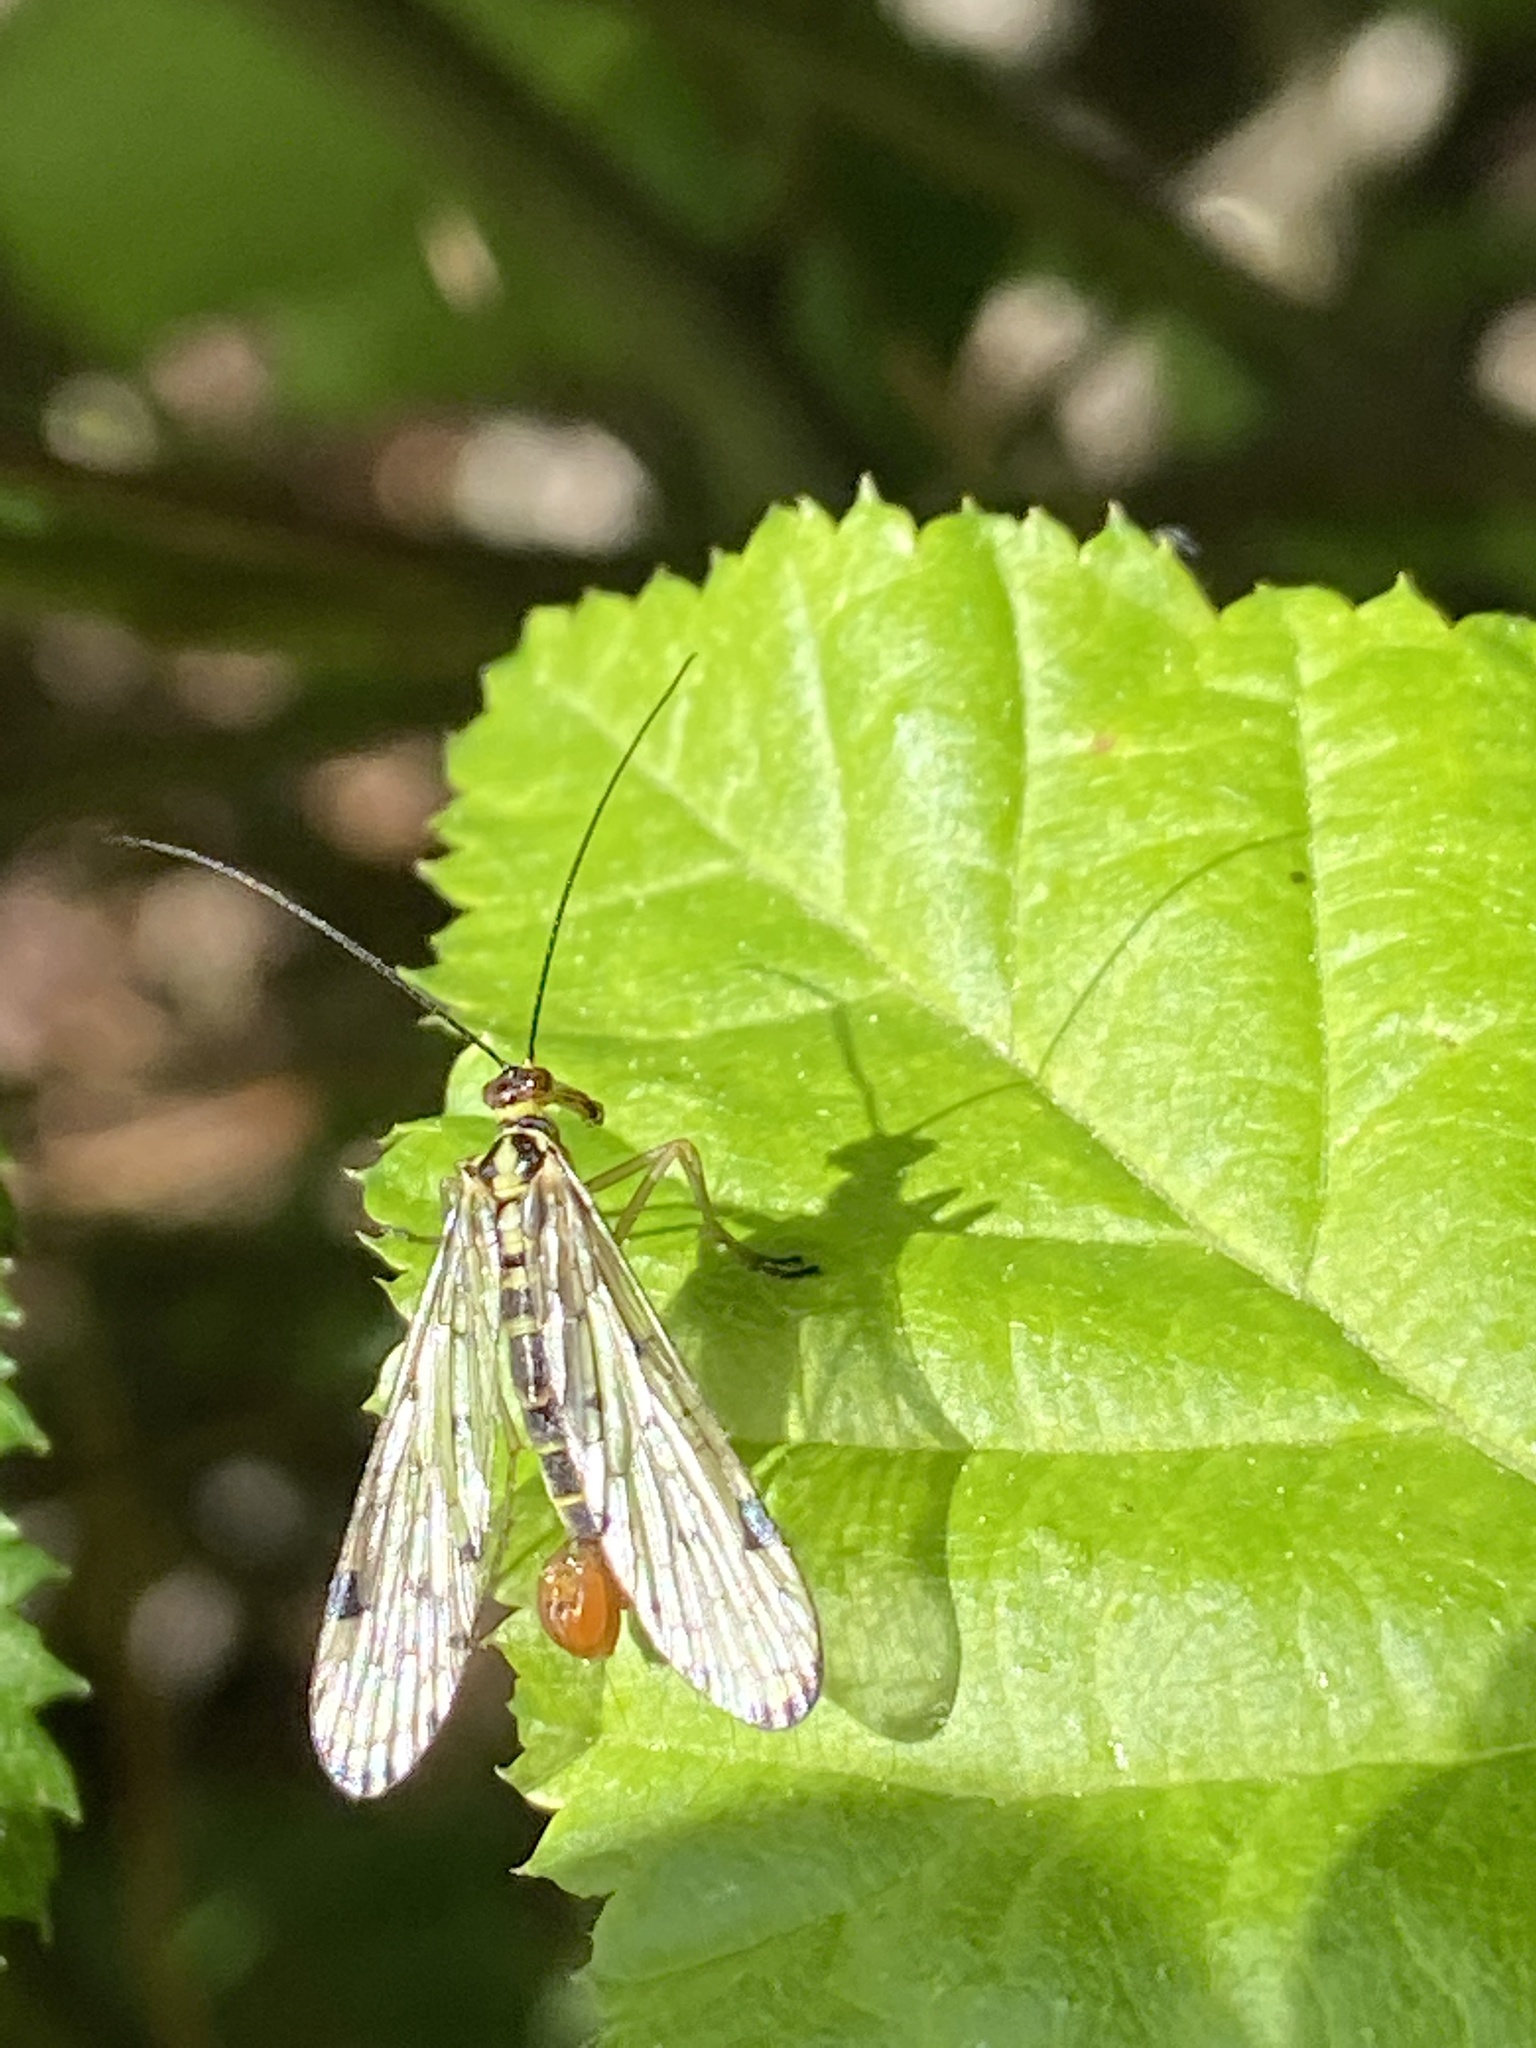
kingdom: Animalia
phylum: Arthropoda
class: Insecta
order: Mecoptera
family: Panorpidae
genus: Panorpa
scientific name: Panorpa germanica
